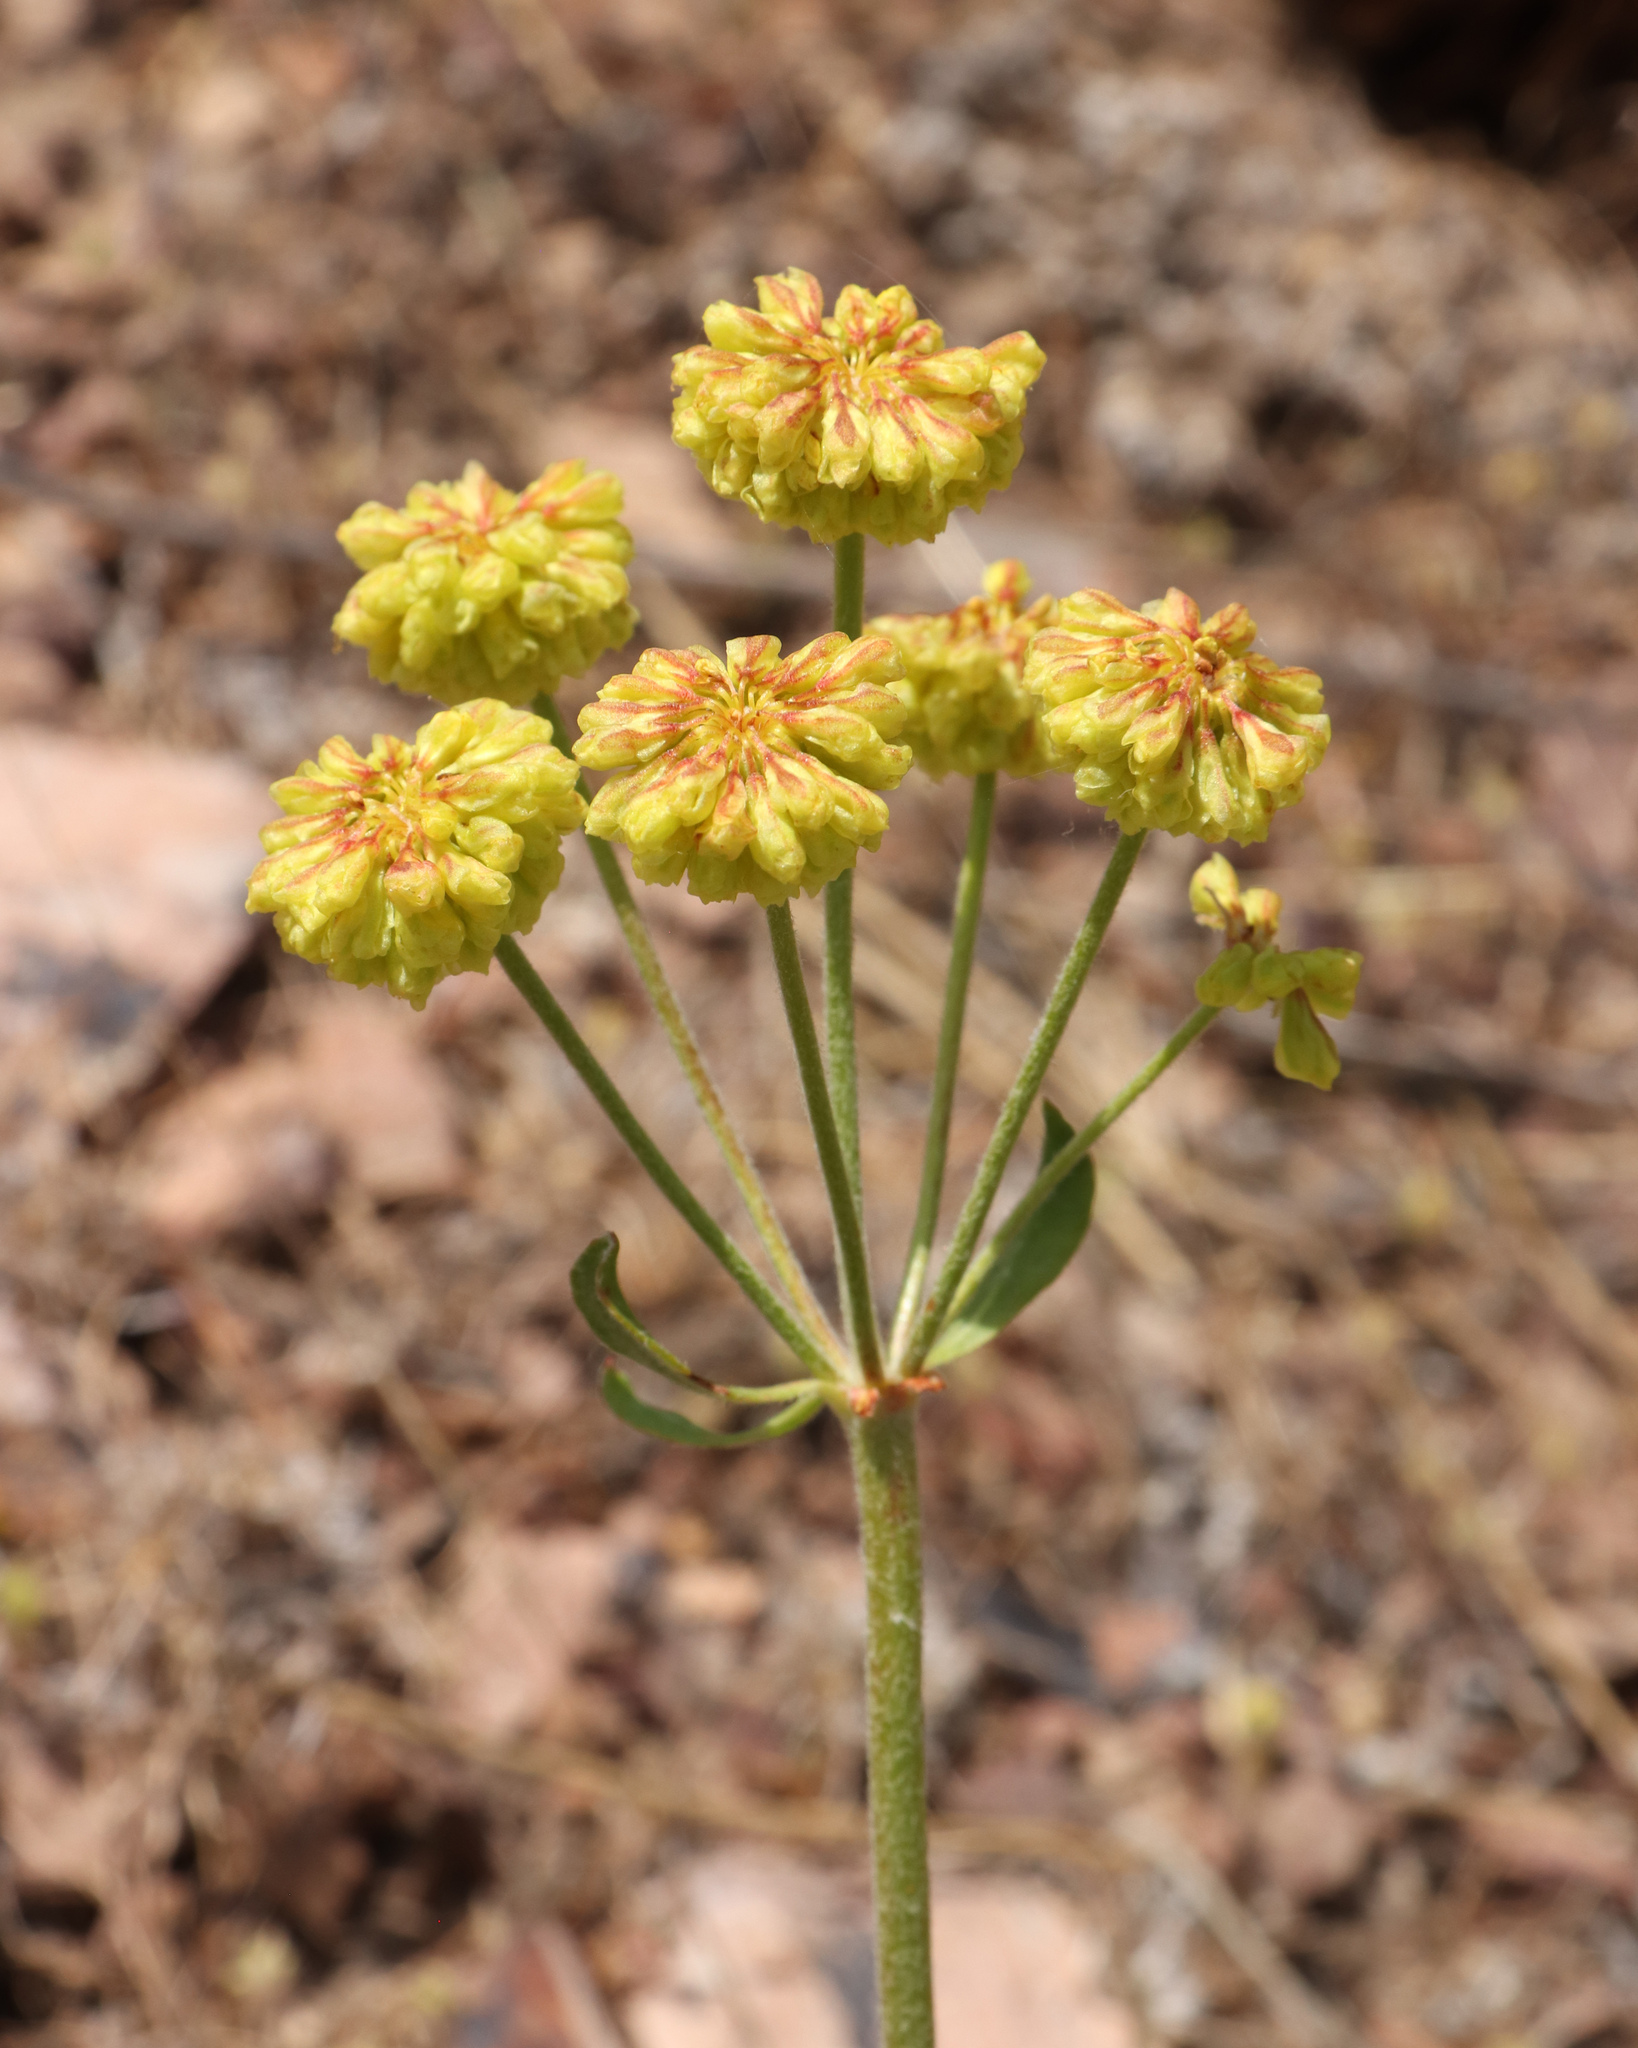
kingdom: Plantae
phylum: Tracheophyta
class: Magnoliopsida
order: Caryophyllales
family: Polygonaceae
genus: Eriogonum
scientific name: Eriogonum umbellatum
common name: Sulfur-buckwheat
